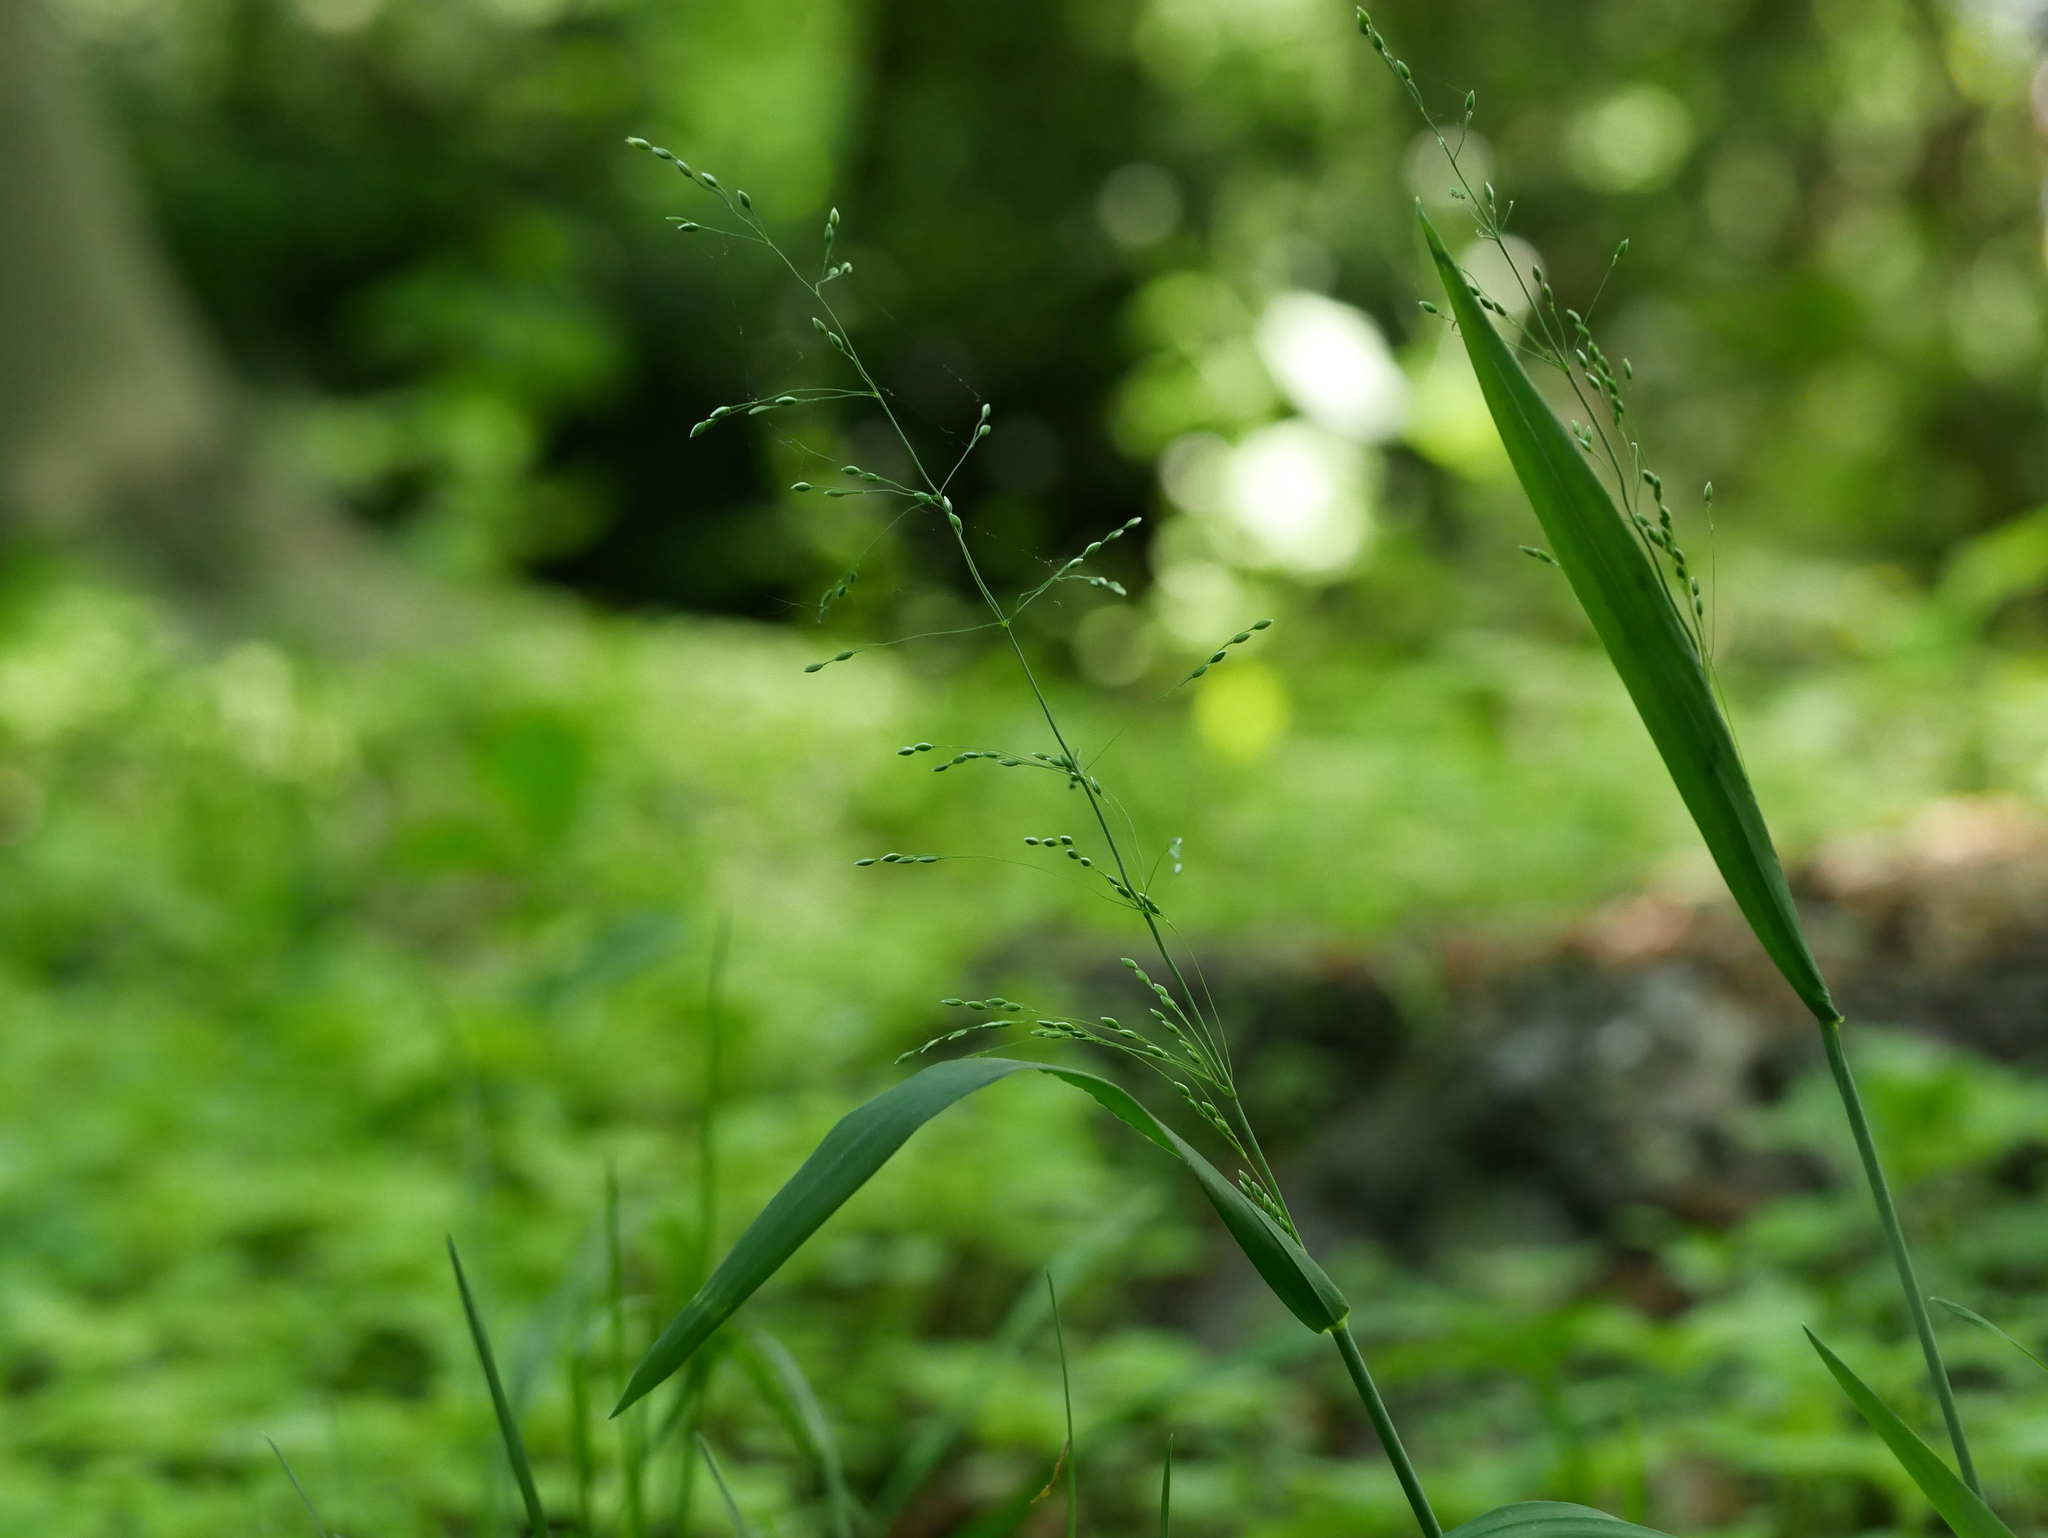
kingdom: Plantae
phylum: Tracheophyta
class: Liliopsida
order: Poales
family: Poaceae
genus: Milium
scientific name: Milium effusum
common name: Wood millet
